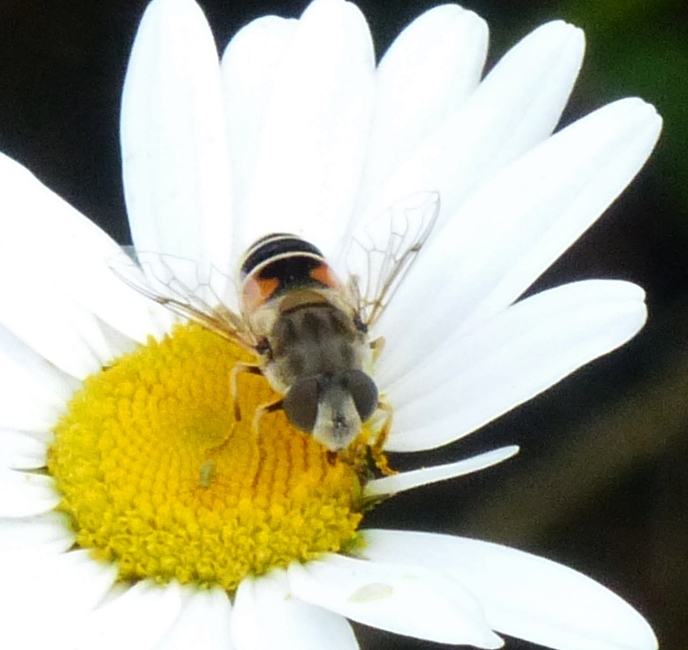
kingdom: Animalia
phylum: Arthropoda
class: Insecta
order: Diptera
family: Syrphidae
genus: Eristalis
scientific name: Eristalis arbustorum
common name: Hover fly
